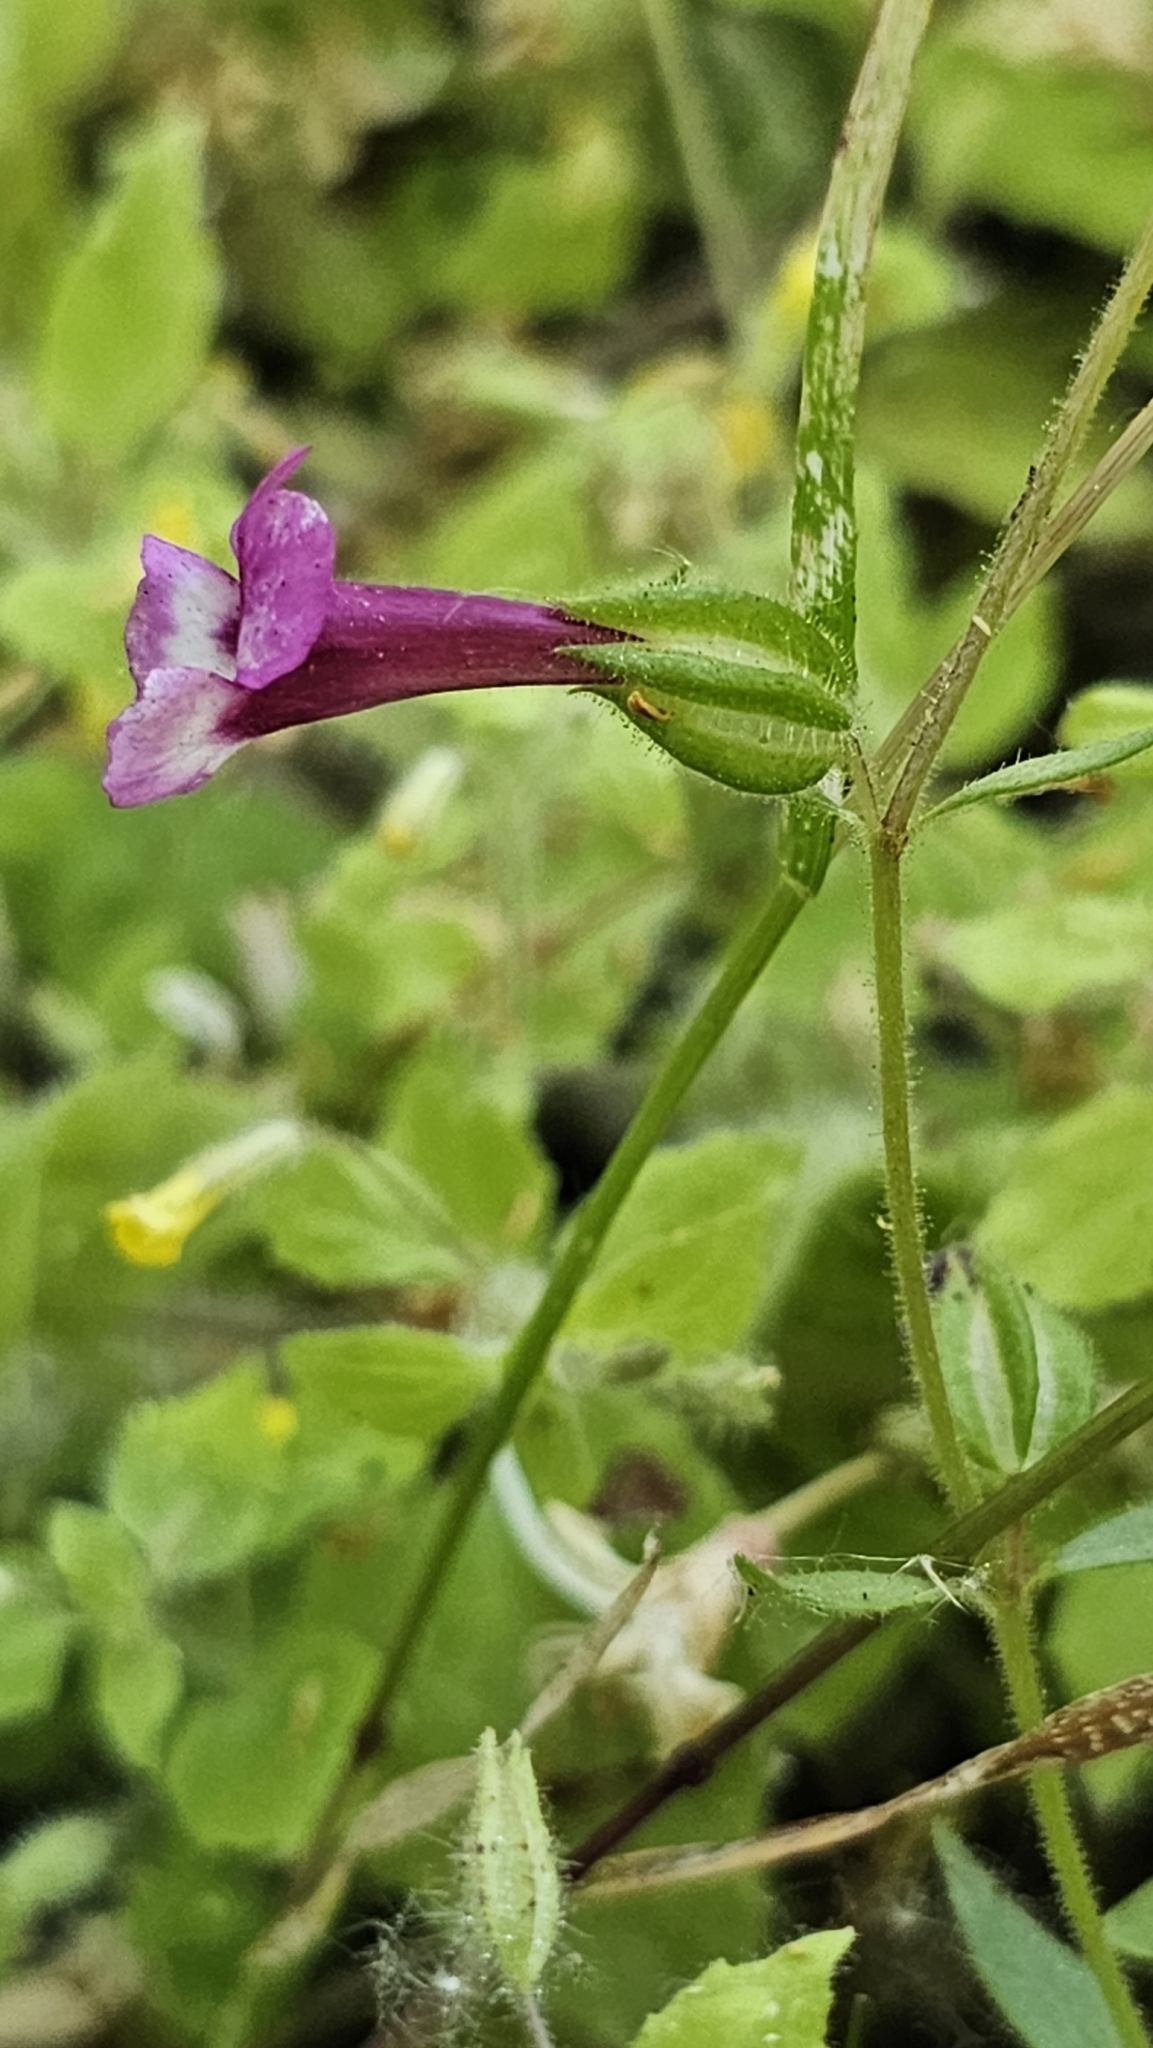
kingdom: Plantae
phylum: Tracheophyta
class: Magnoliopsida
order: Lamiales
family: Phrymaceae
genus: Diplacus
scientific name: Diplacus compactus
